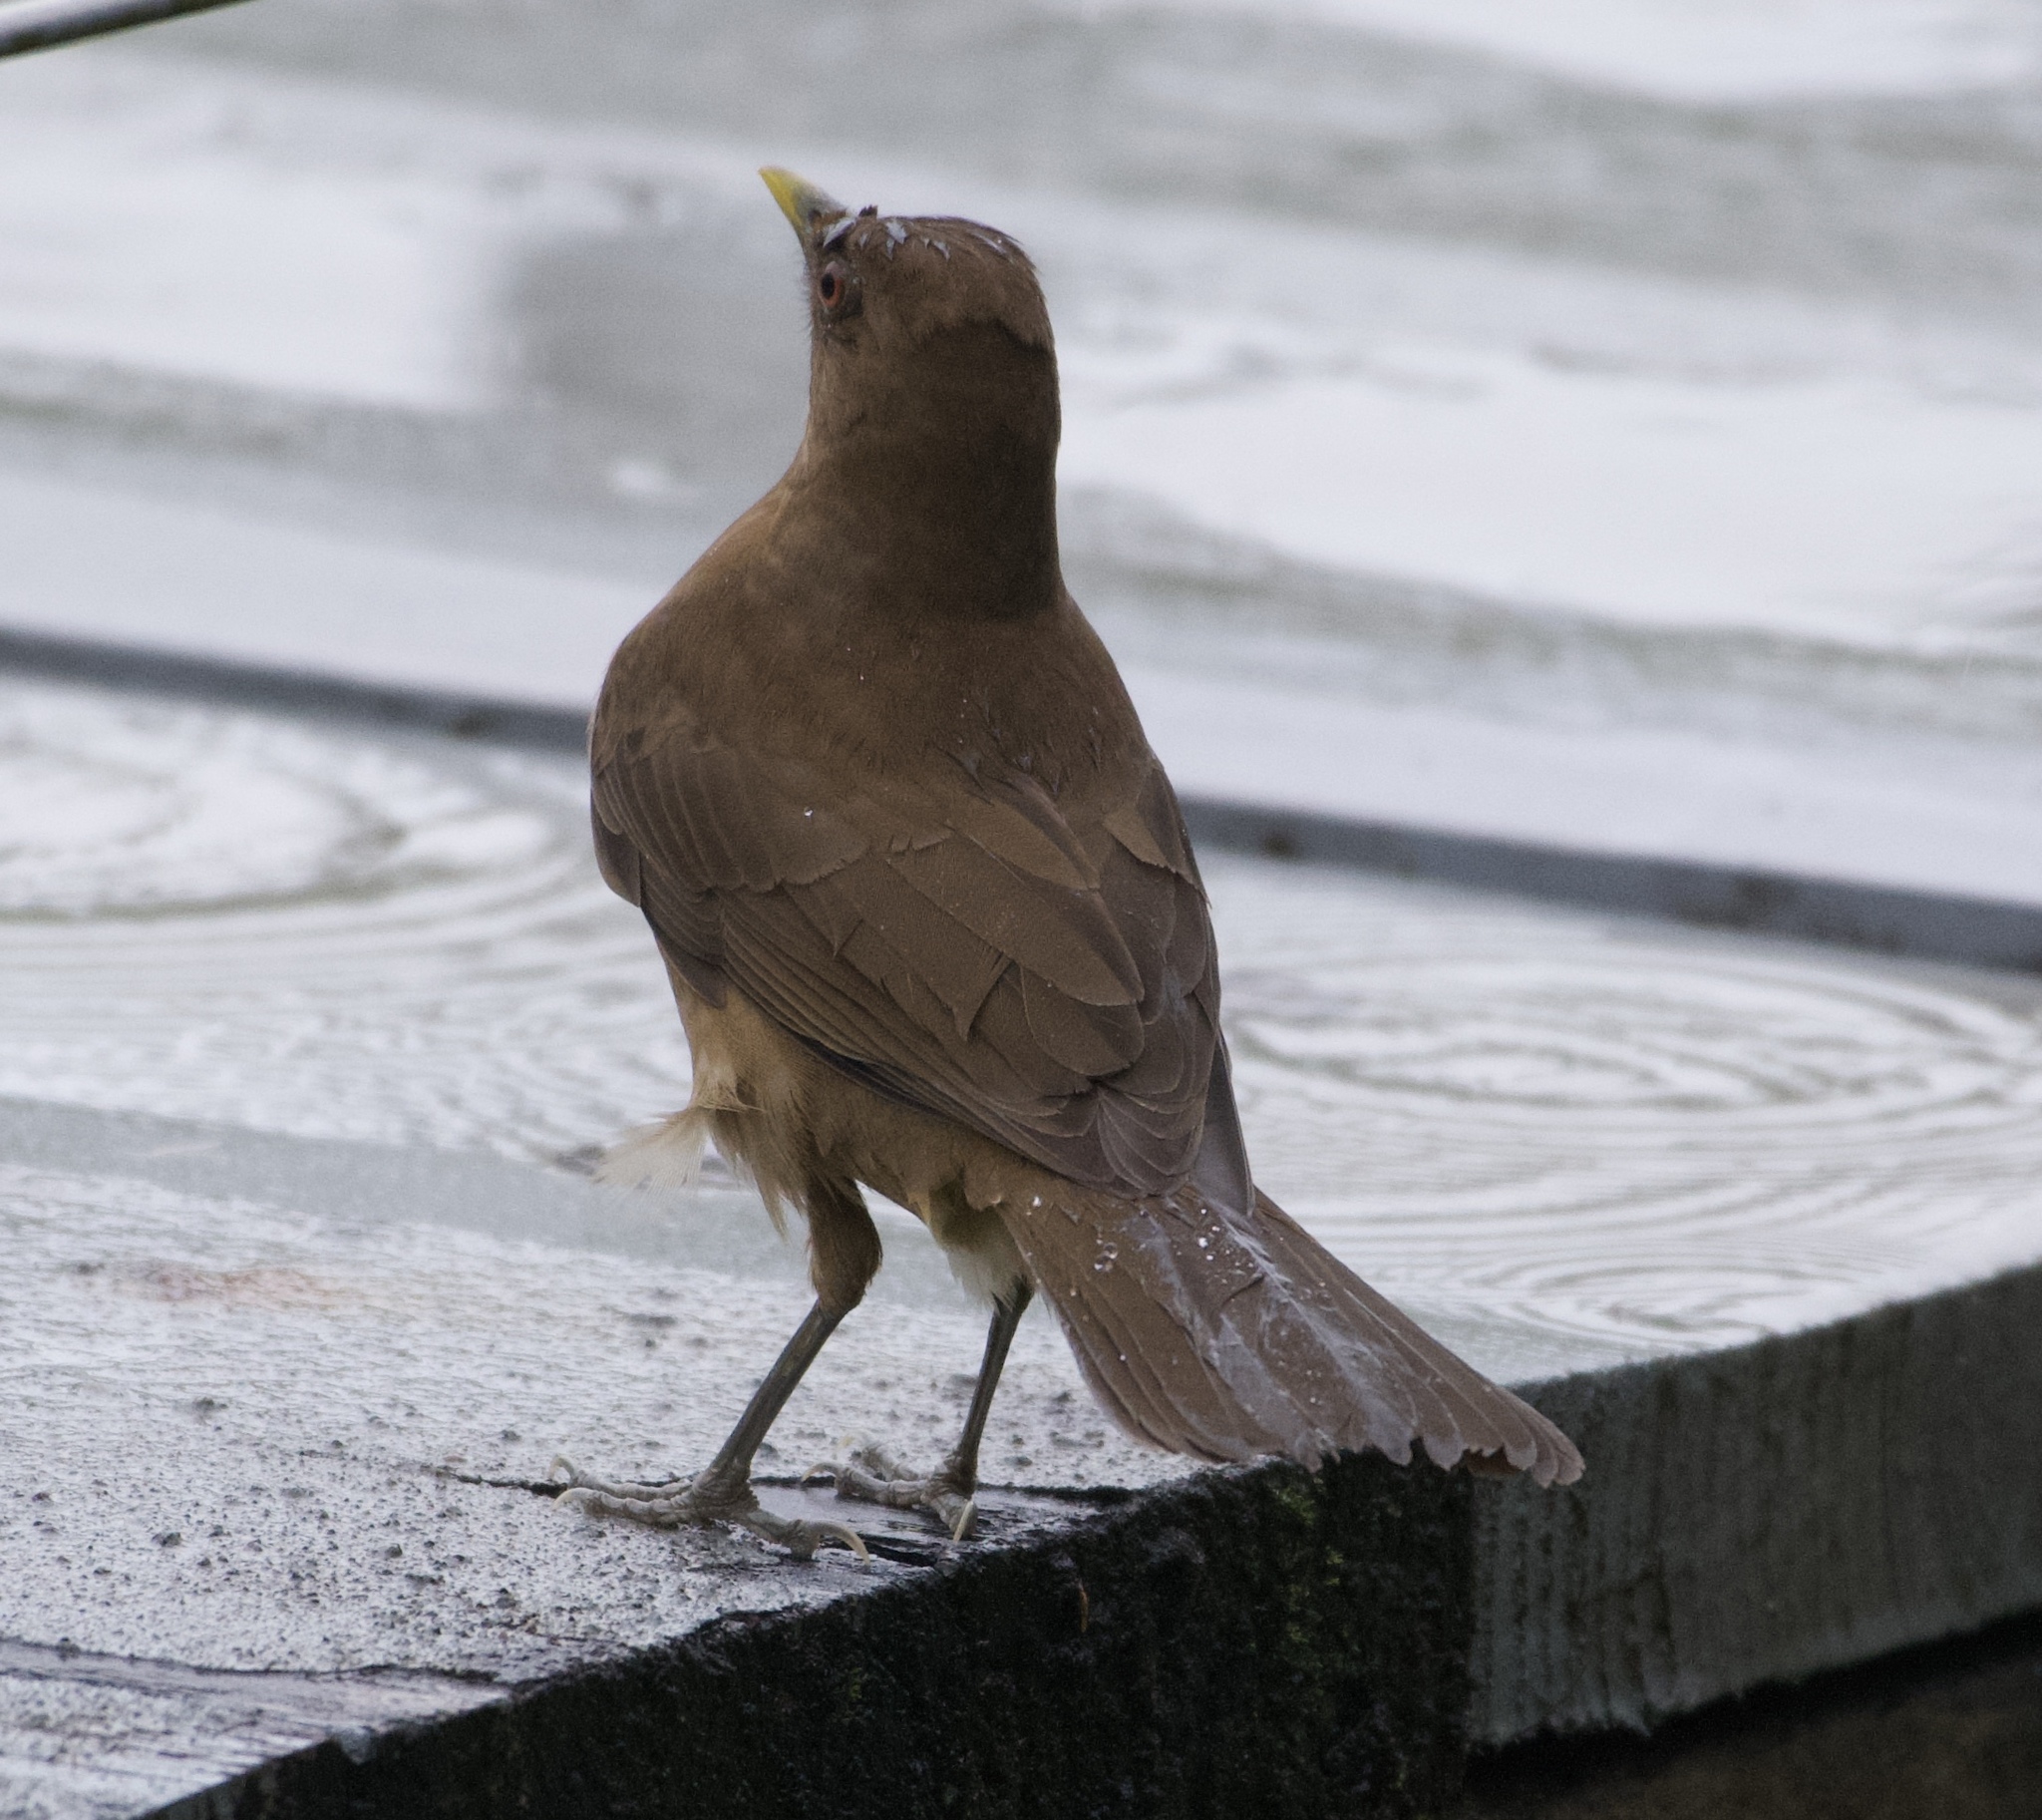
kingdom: Animalia
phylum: Chordata
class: Aves
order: Passeriformes
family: Turdidae
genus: Turdus
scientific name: Turdus grayi
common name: Clay-colored thrush
